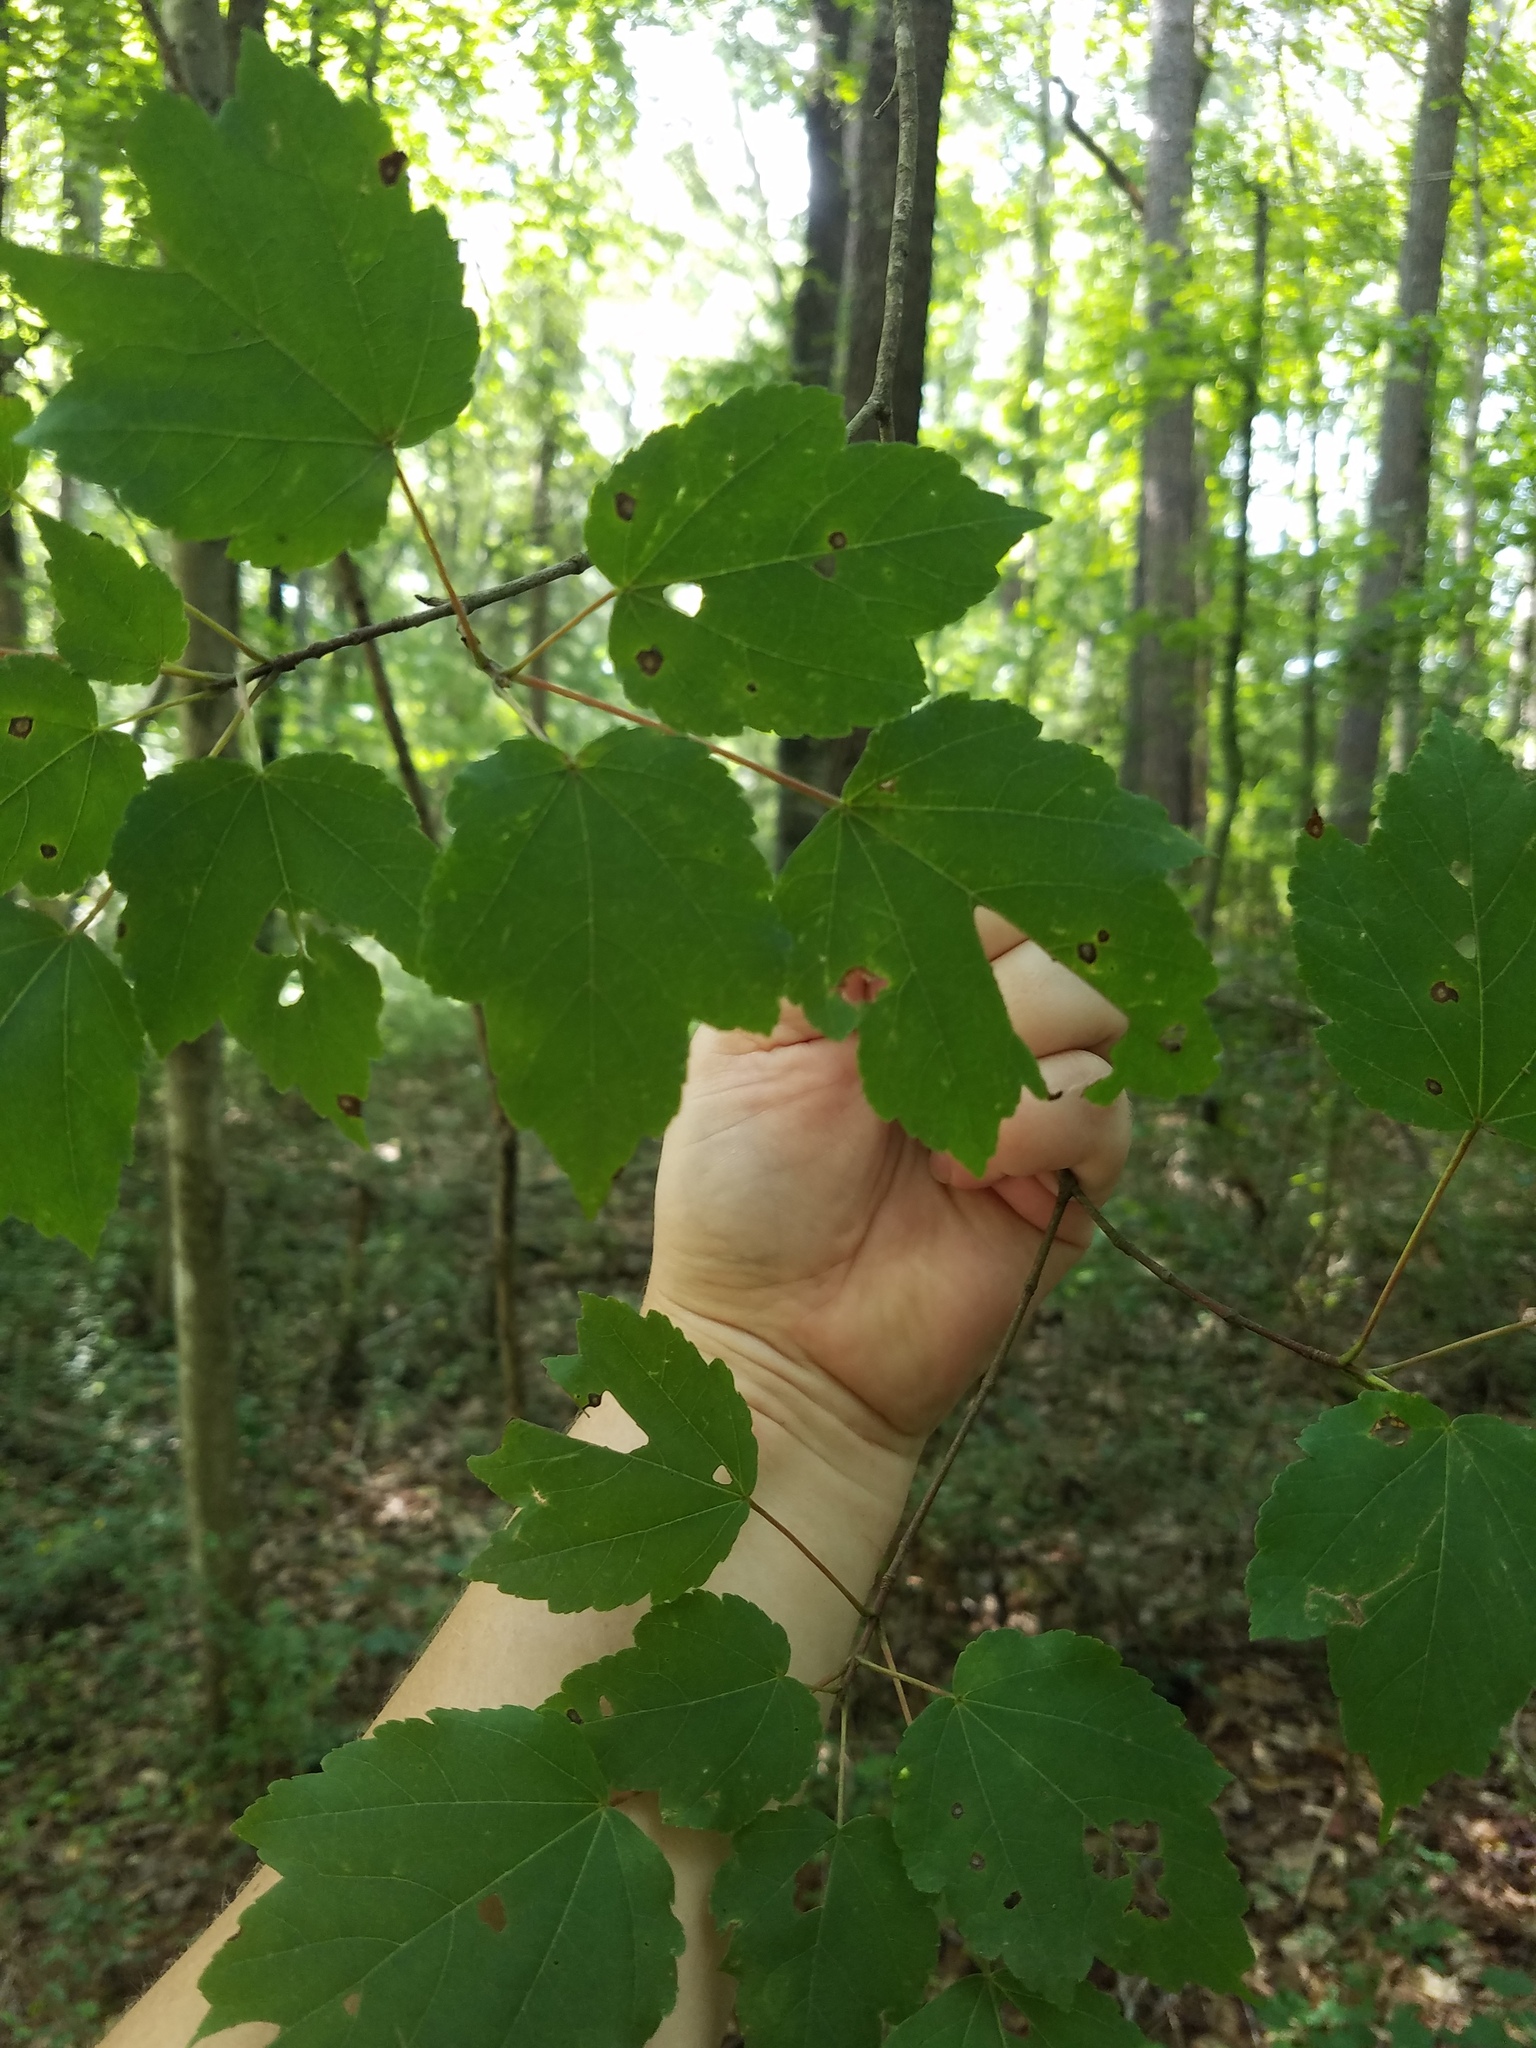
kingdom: Plantae
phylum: Tracheophyta
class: Magnoliopsida
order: Sapindales
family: Sapindaceae
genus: Acer
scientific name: Acer rubrum
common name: Red maple
